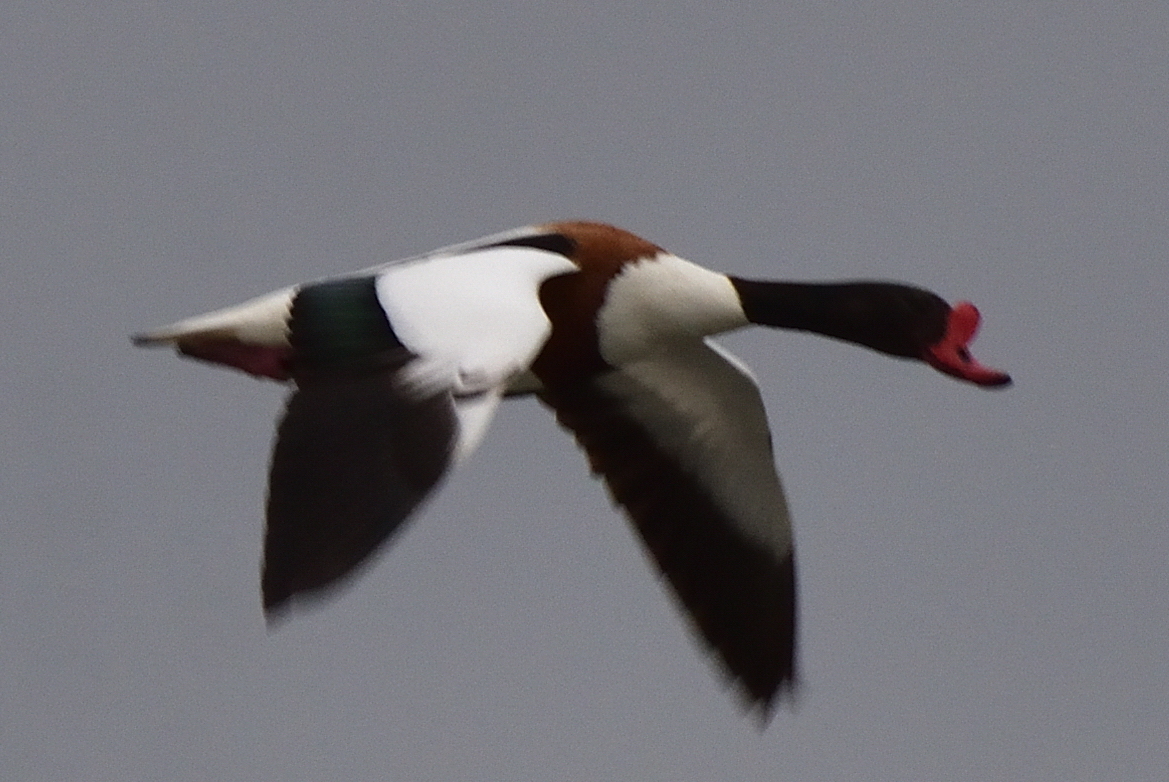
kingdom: Animalia
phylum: Chordata
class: Aves
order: Anseriformes
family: Anatidae
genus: Tadorna
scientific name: Tadorna tadorna
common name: Common shelduck
